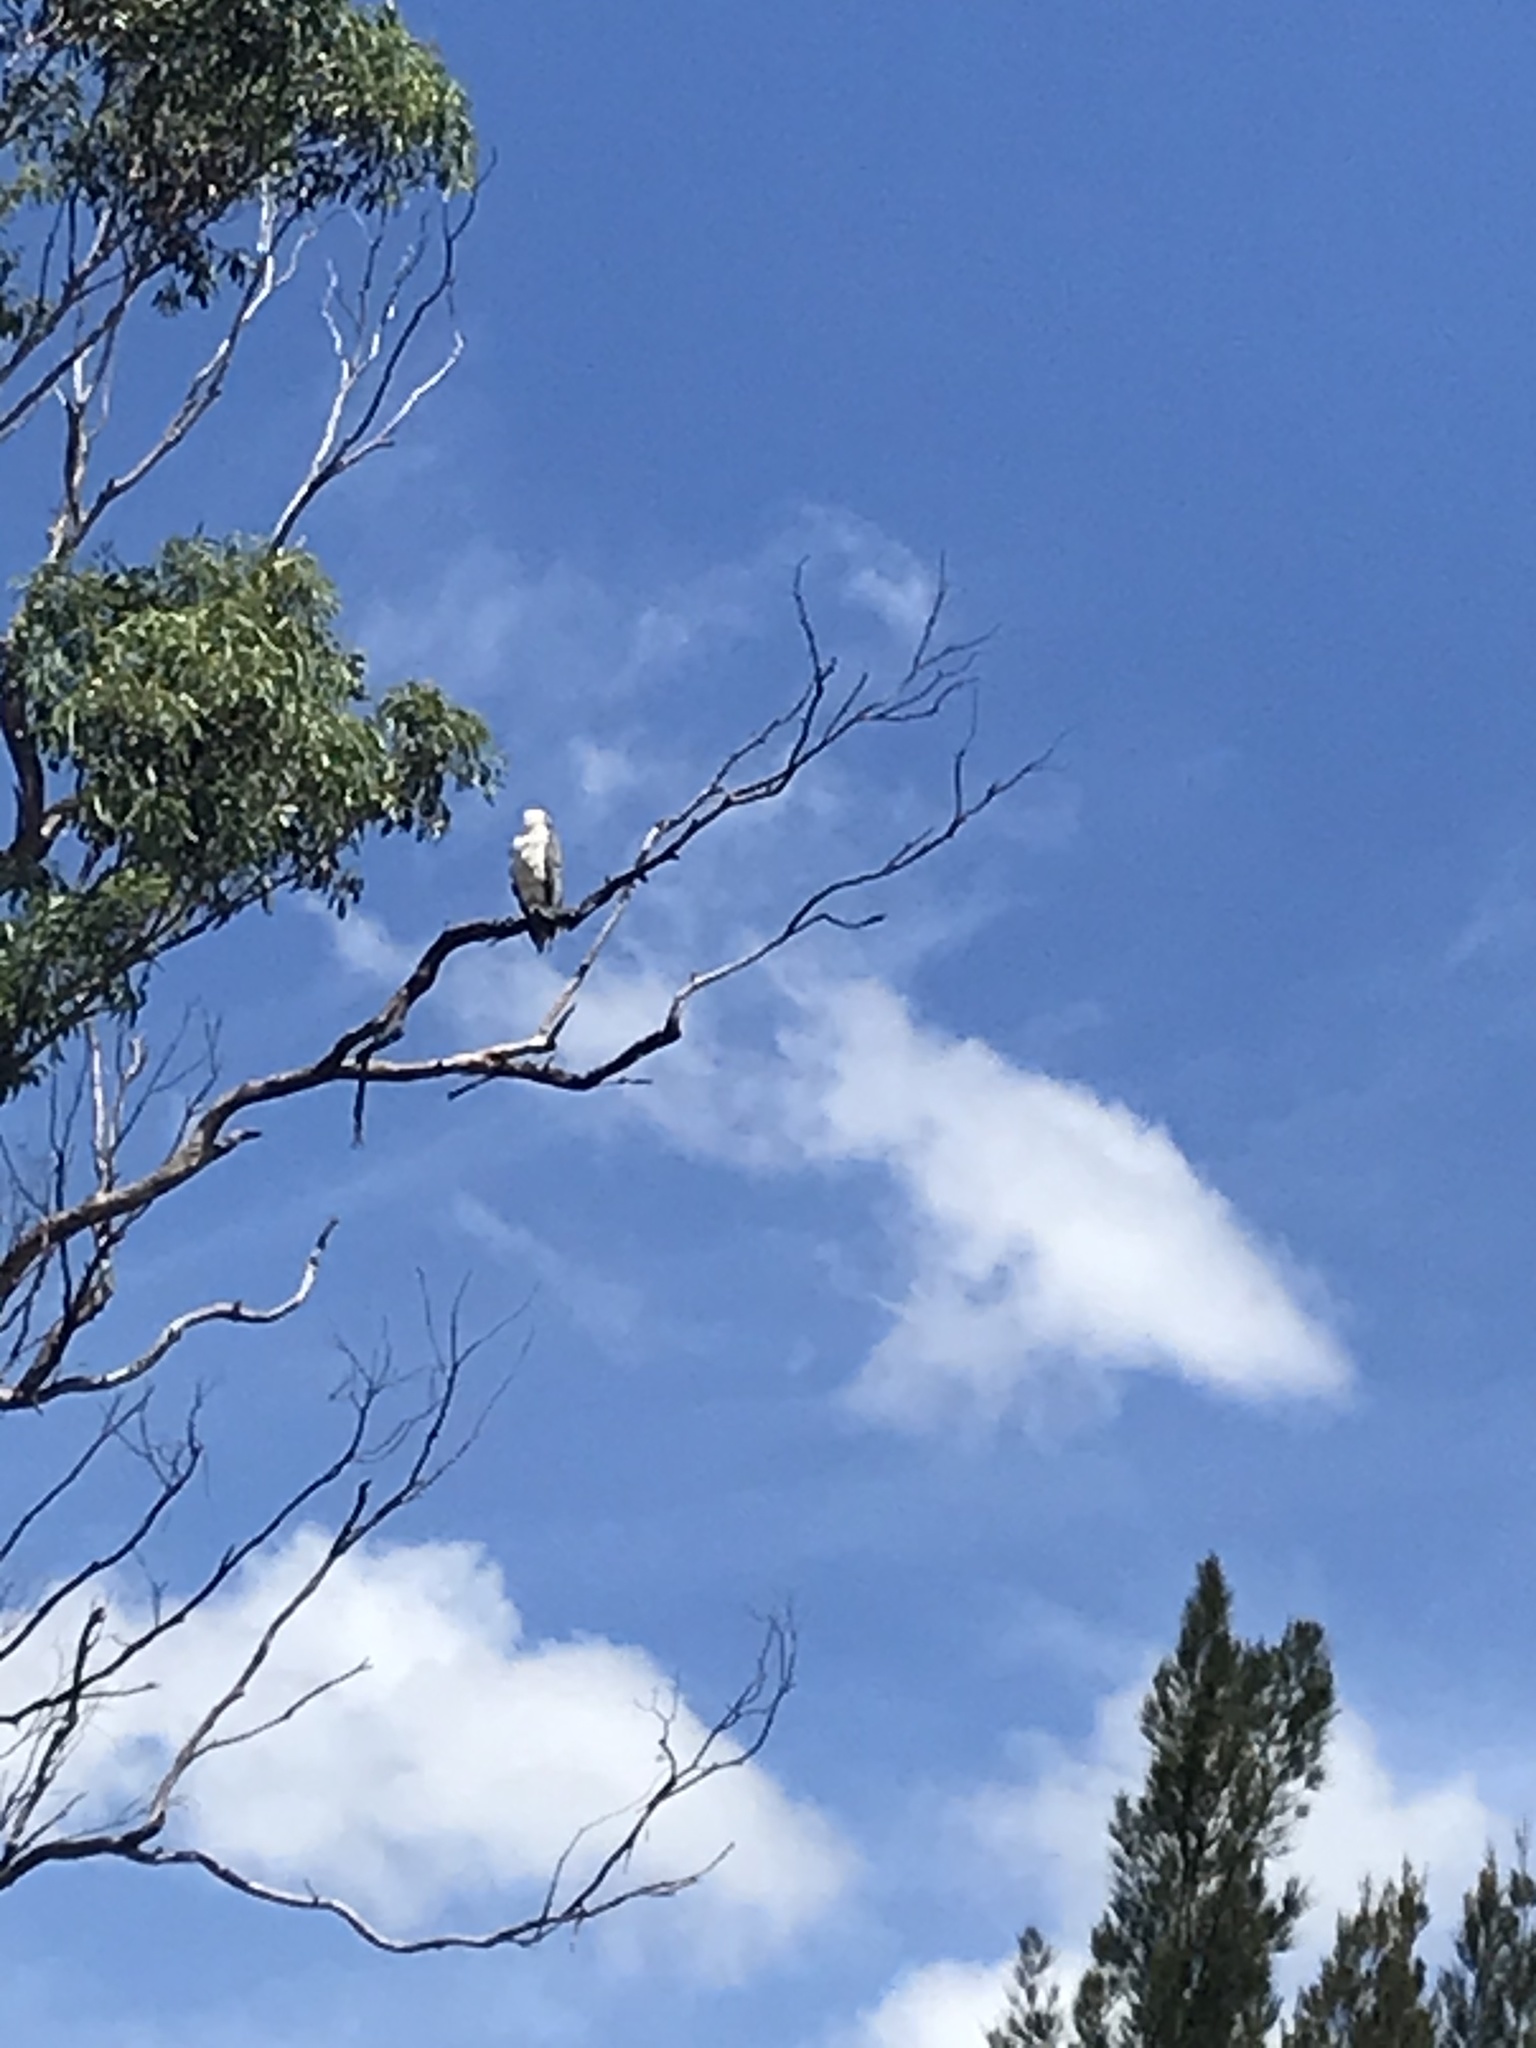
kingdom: Animalia
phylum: Chordata
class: Aves
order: Accipitriformes
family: Accipitridae
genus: Haliaeetus
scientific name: Haliaeetus leucogaster
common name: White-bellied sea eagle
